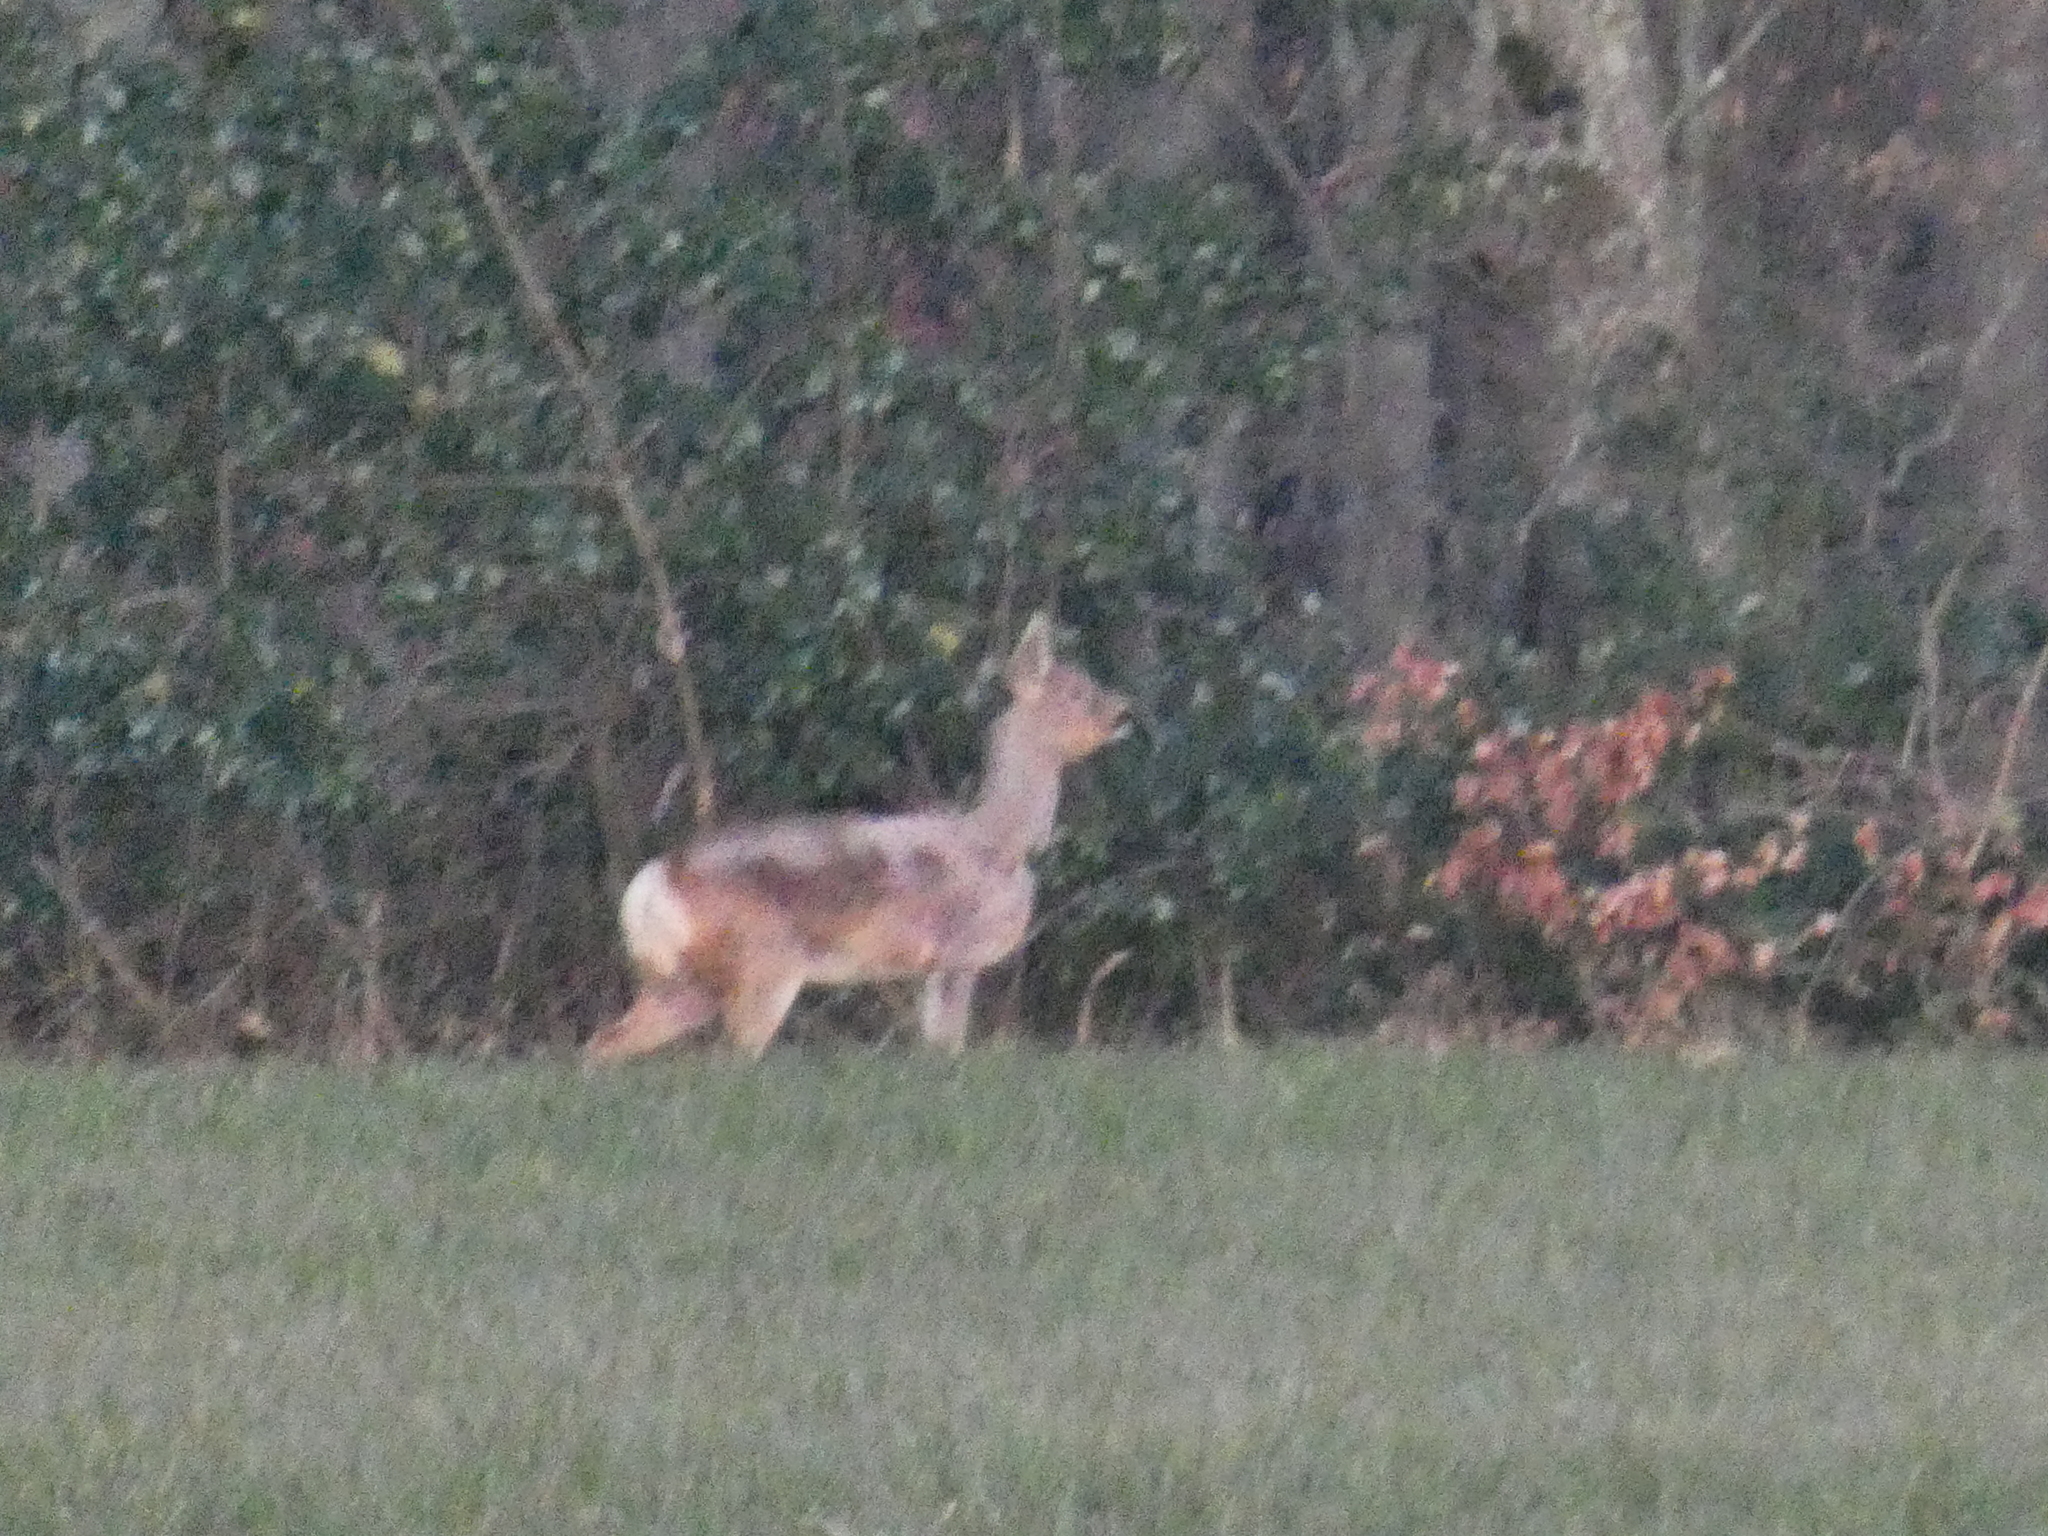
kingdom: Animalia
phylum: Chordata
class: Mammalia
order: Artiodactyla
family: Cervidae
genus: Capreolus
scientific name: Capreolus capreolus
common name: Western roe deer
